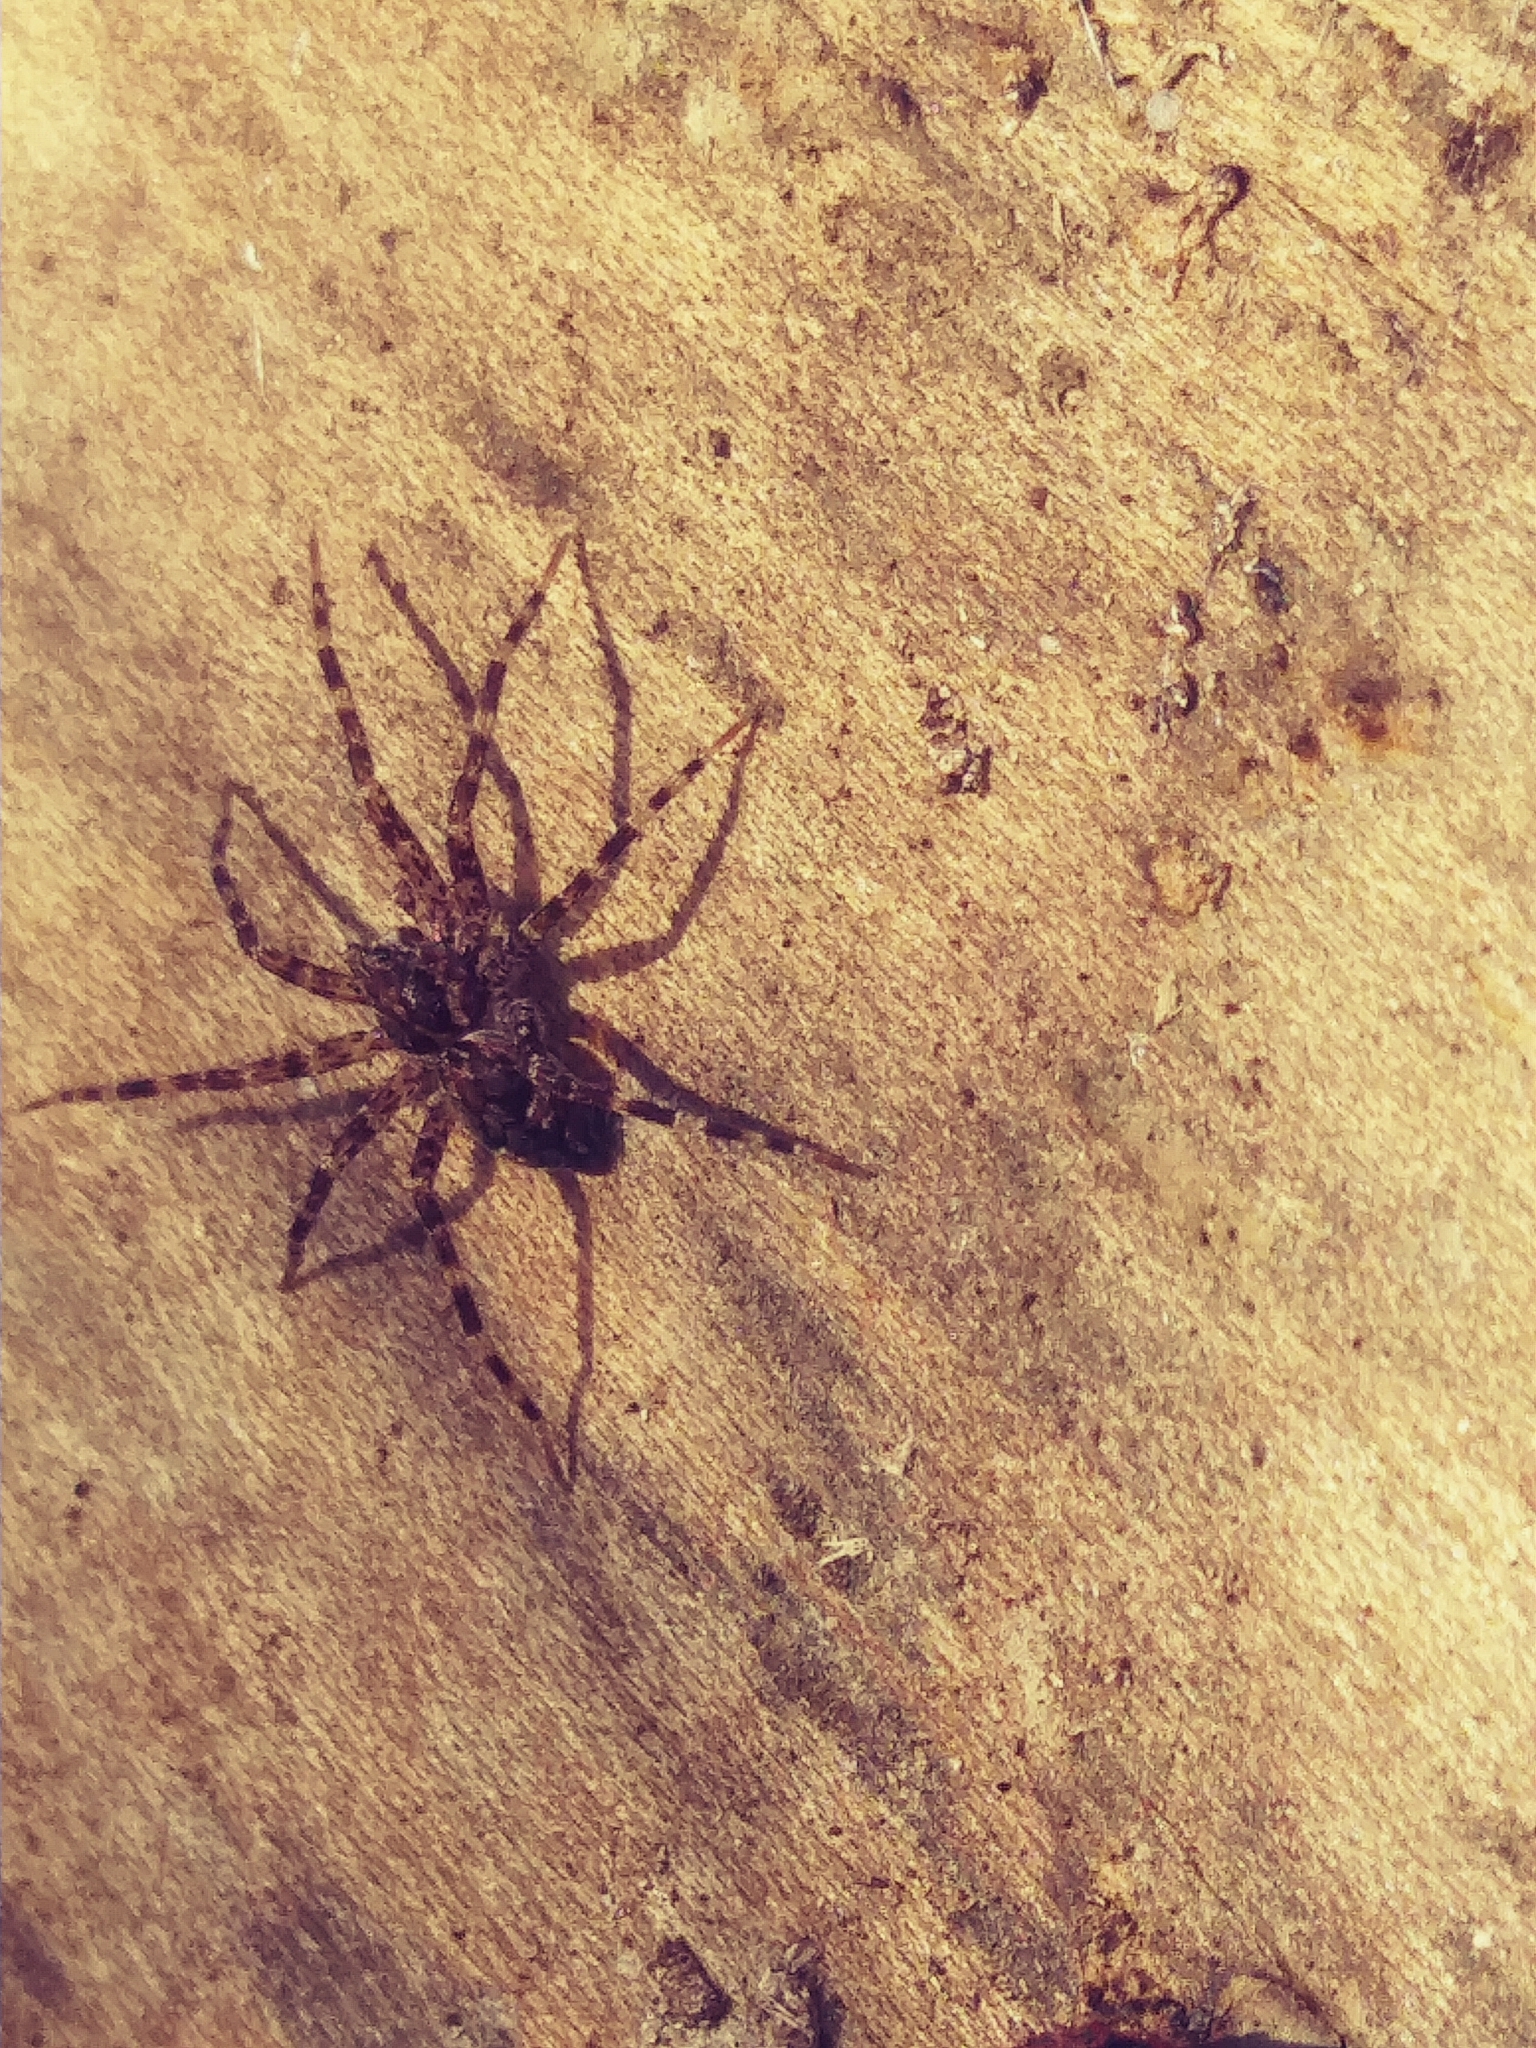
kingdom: Animalia
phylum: Arthropoda
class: Arachnida
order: Araneae
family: Pisauridae
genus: Dolomedes
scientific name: Dolomedes tenebrosus
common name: Dark fishing spider
